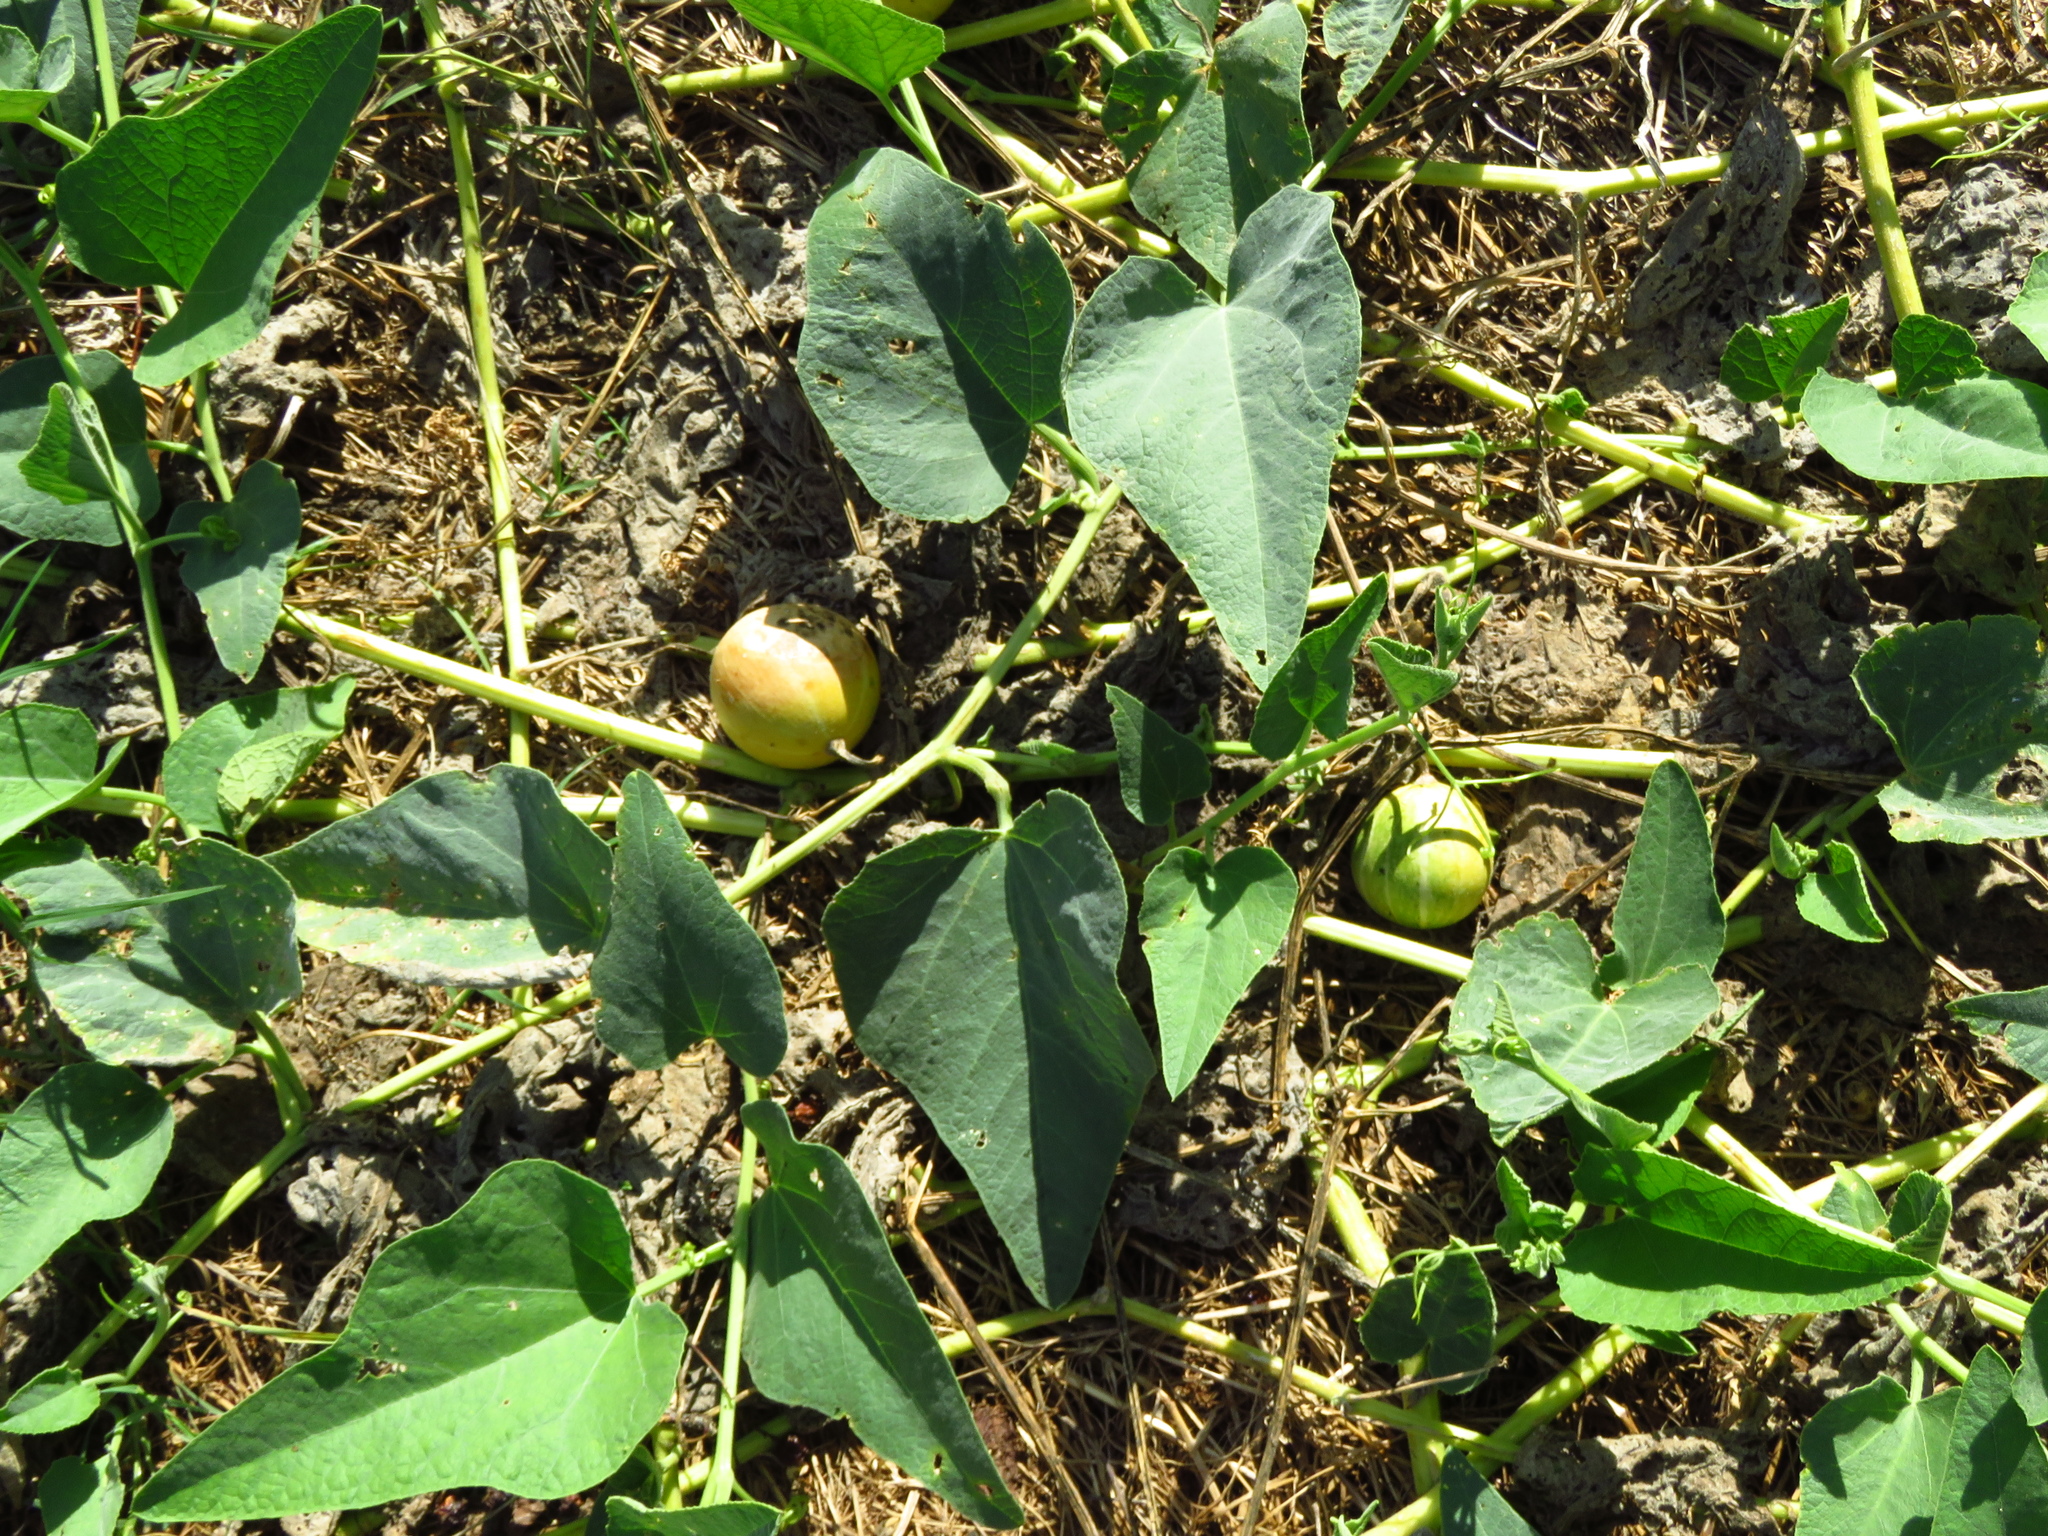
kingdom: Plantae
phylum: Tracheophyta
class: Magnoliopsida
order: Cucurbitales
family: Cucurbitaceae
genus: Cucurbita
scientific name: Cucurbita foetidissima
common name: Buffalo gourd
